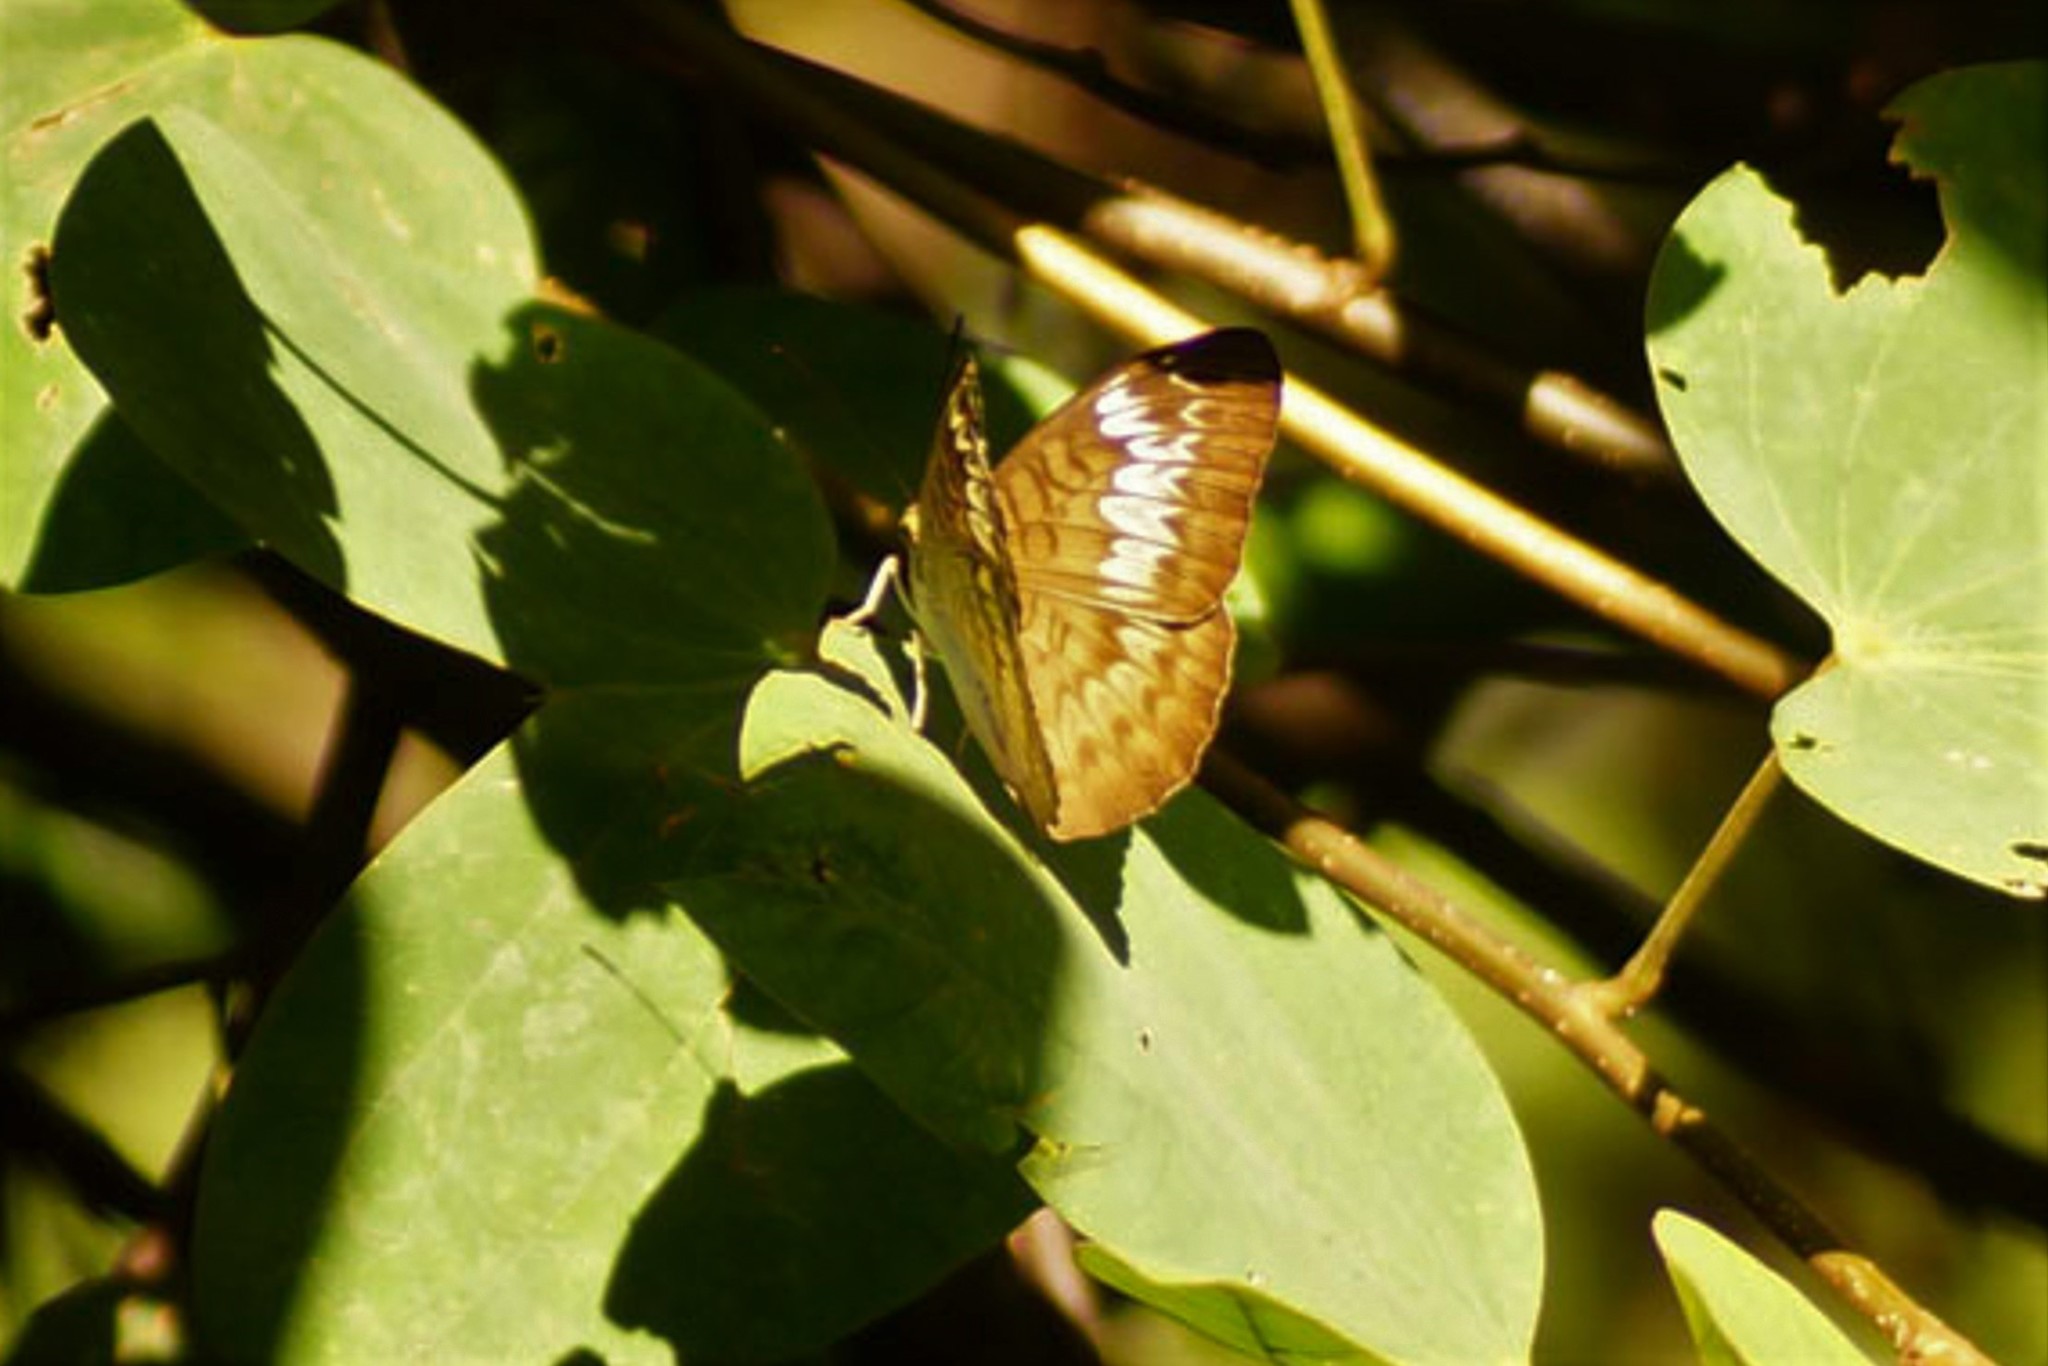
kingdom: Animalia
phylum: Arthropoda
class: Insecta
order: Lepidoptera
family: Nymphalidae
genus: Tanaecia
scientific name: Tanaecia pelea
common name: Malay viscount
